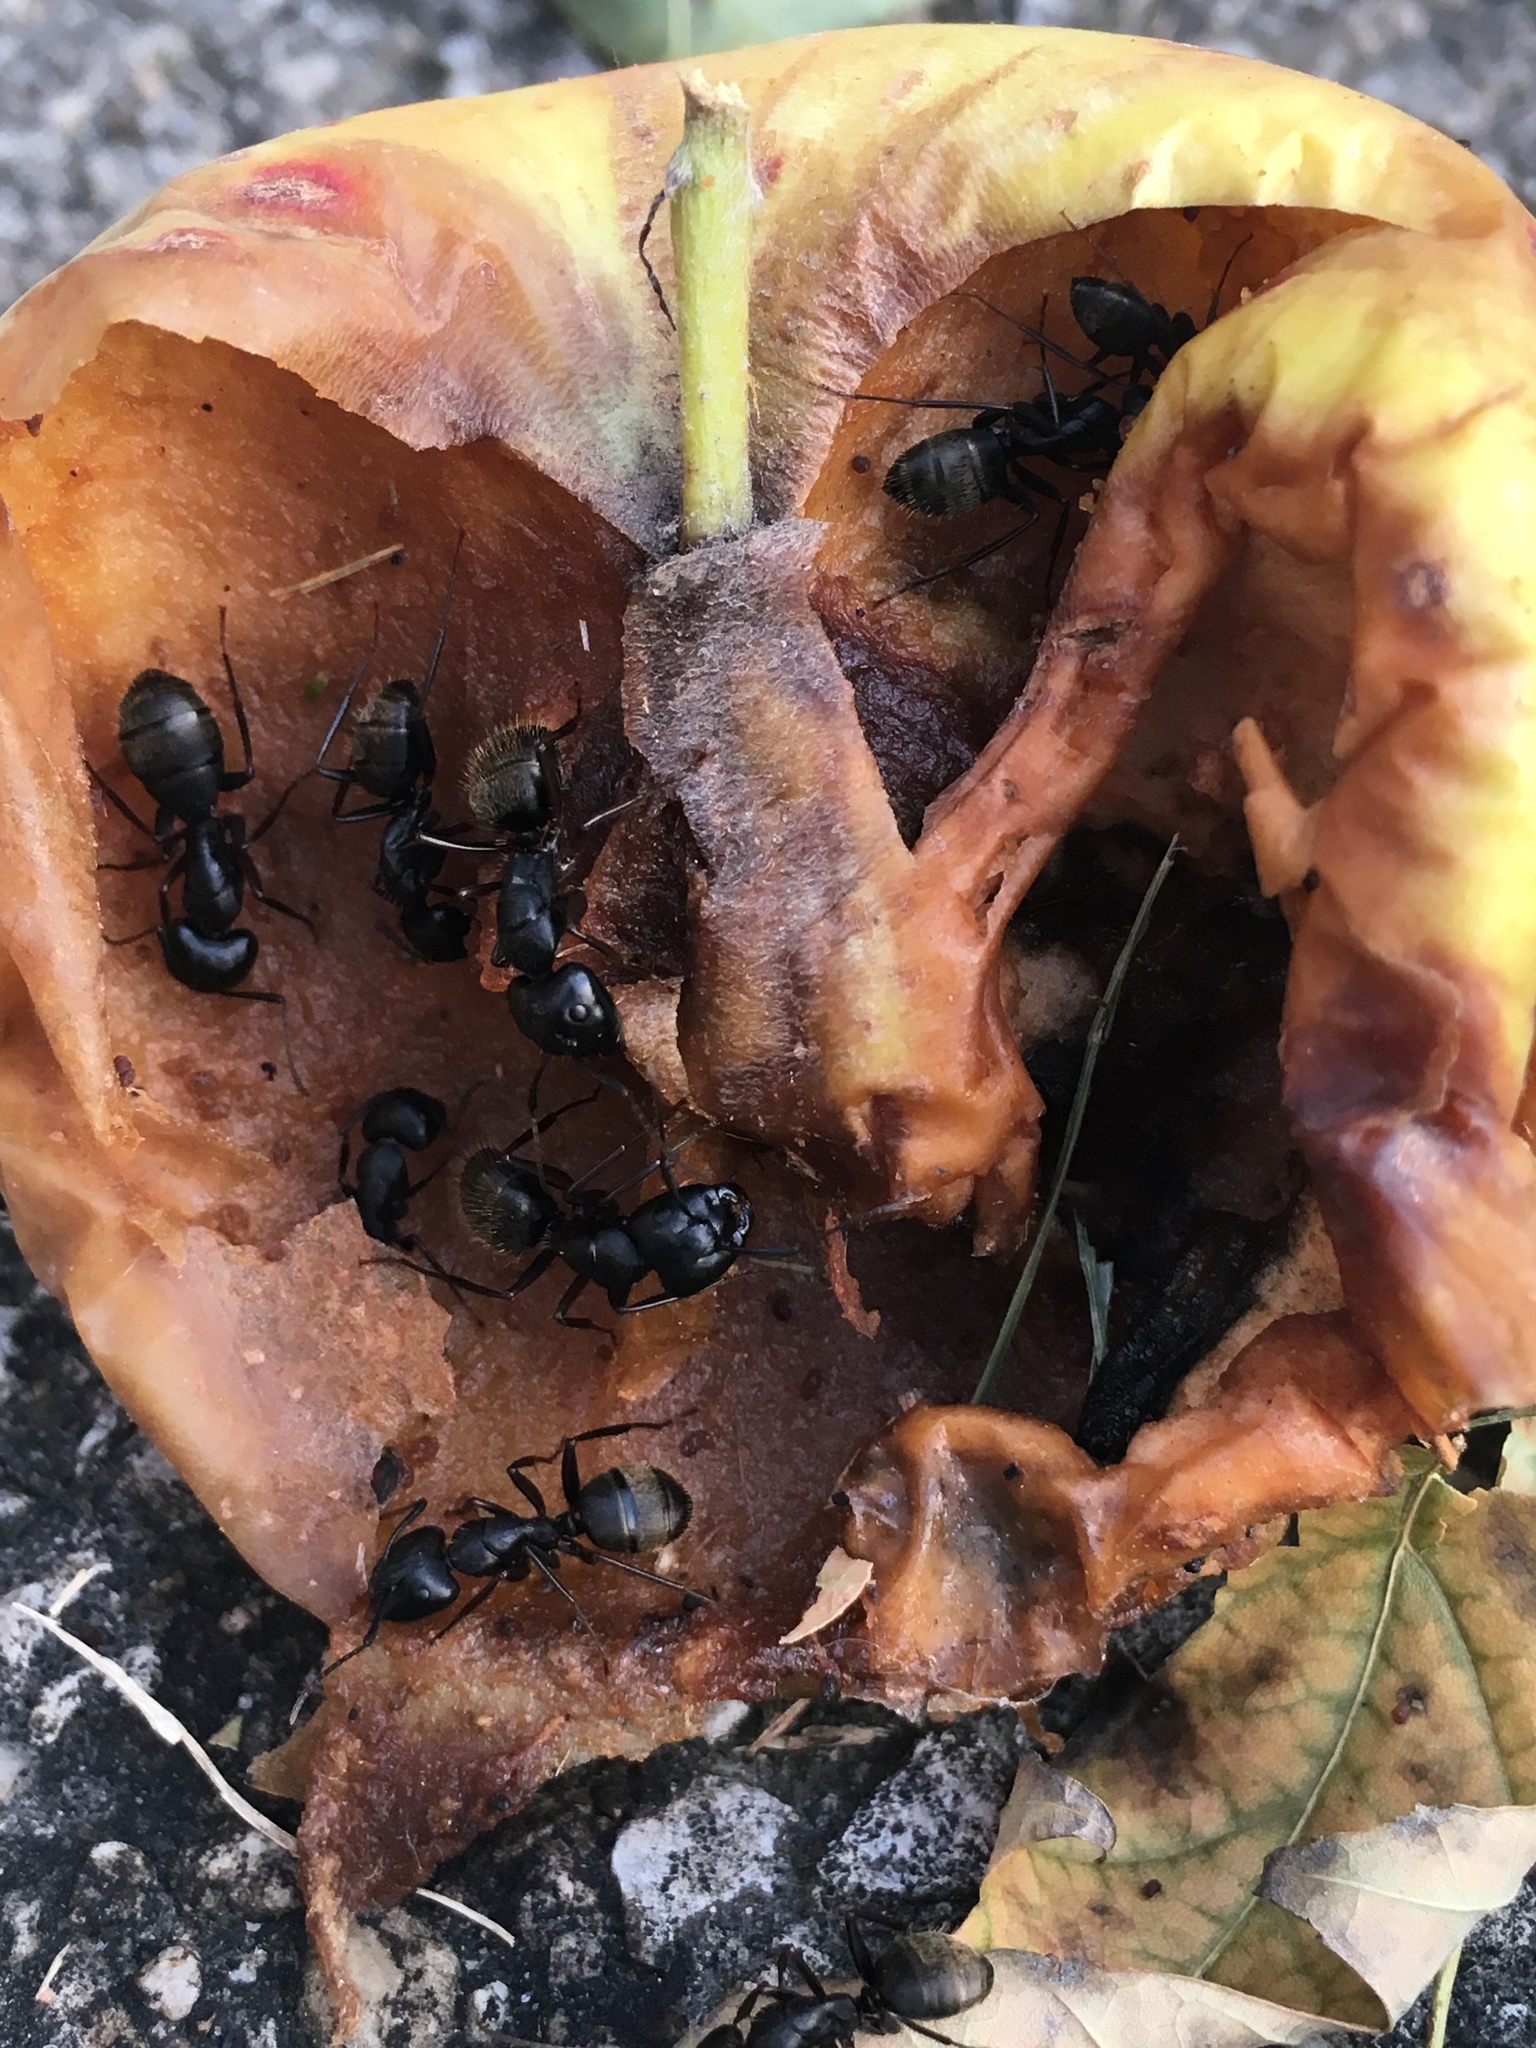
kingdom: Animalia
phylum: Arthropoda
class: Insecta
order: Hymenoptera
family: Formicidae
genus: Camponotus
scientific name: Camponotus pennsylvanicus
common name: Black carpenter ant
